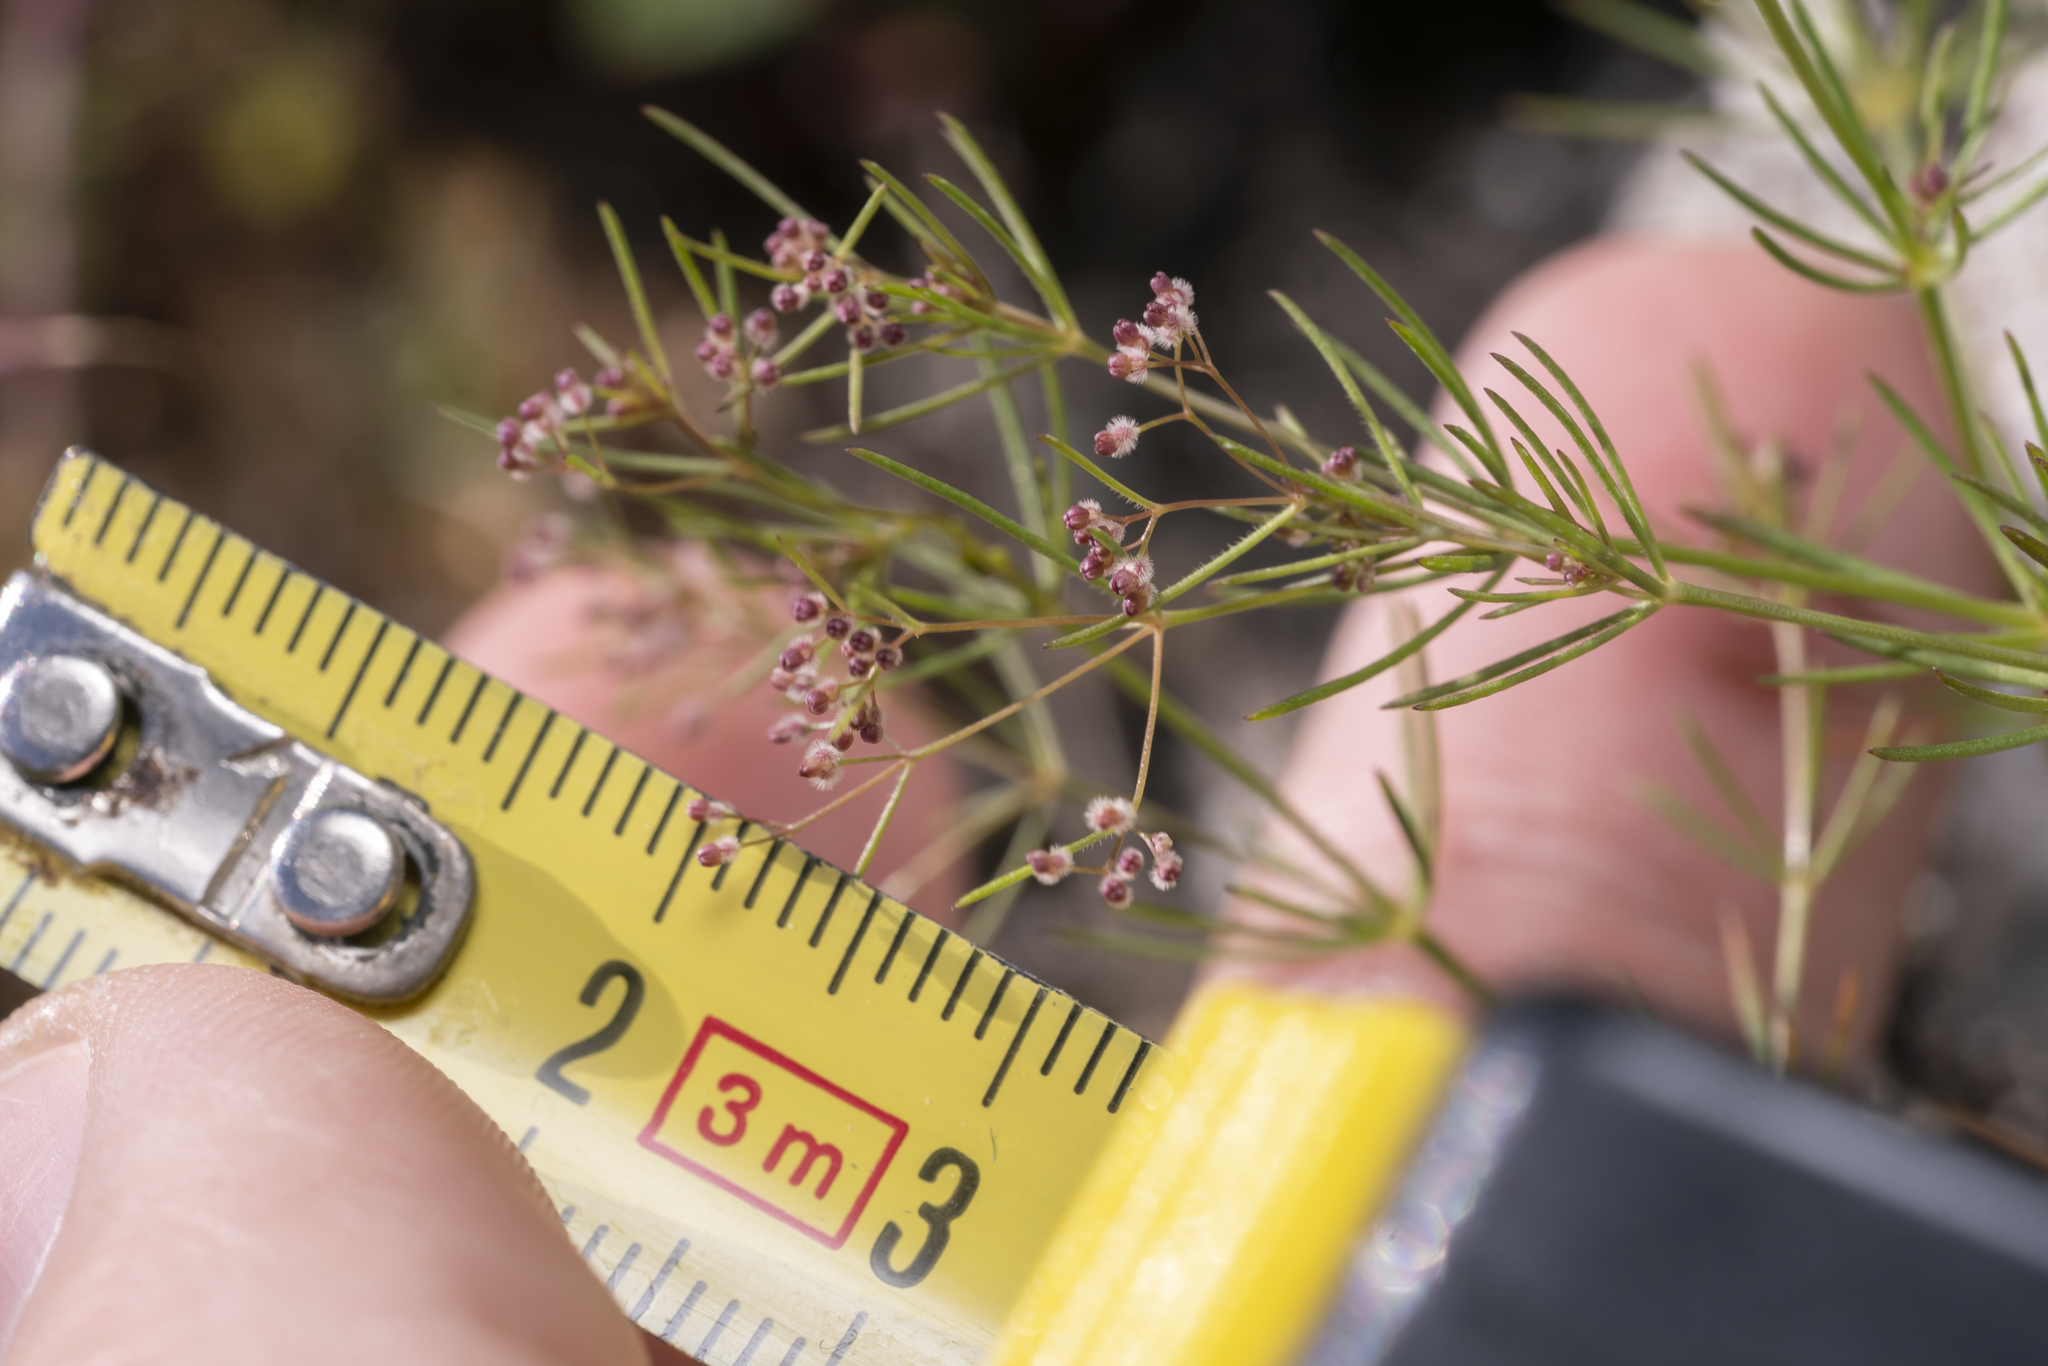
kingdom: Plantae
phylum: Tracheophyta
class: Magnoliopsida
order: Gentianales
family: Rubiaceae
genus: Galium
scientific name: Galium setaceum
